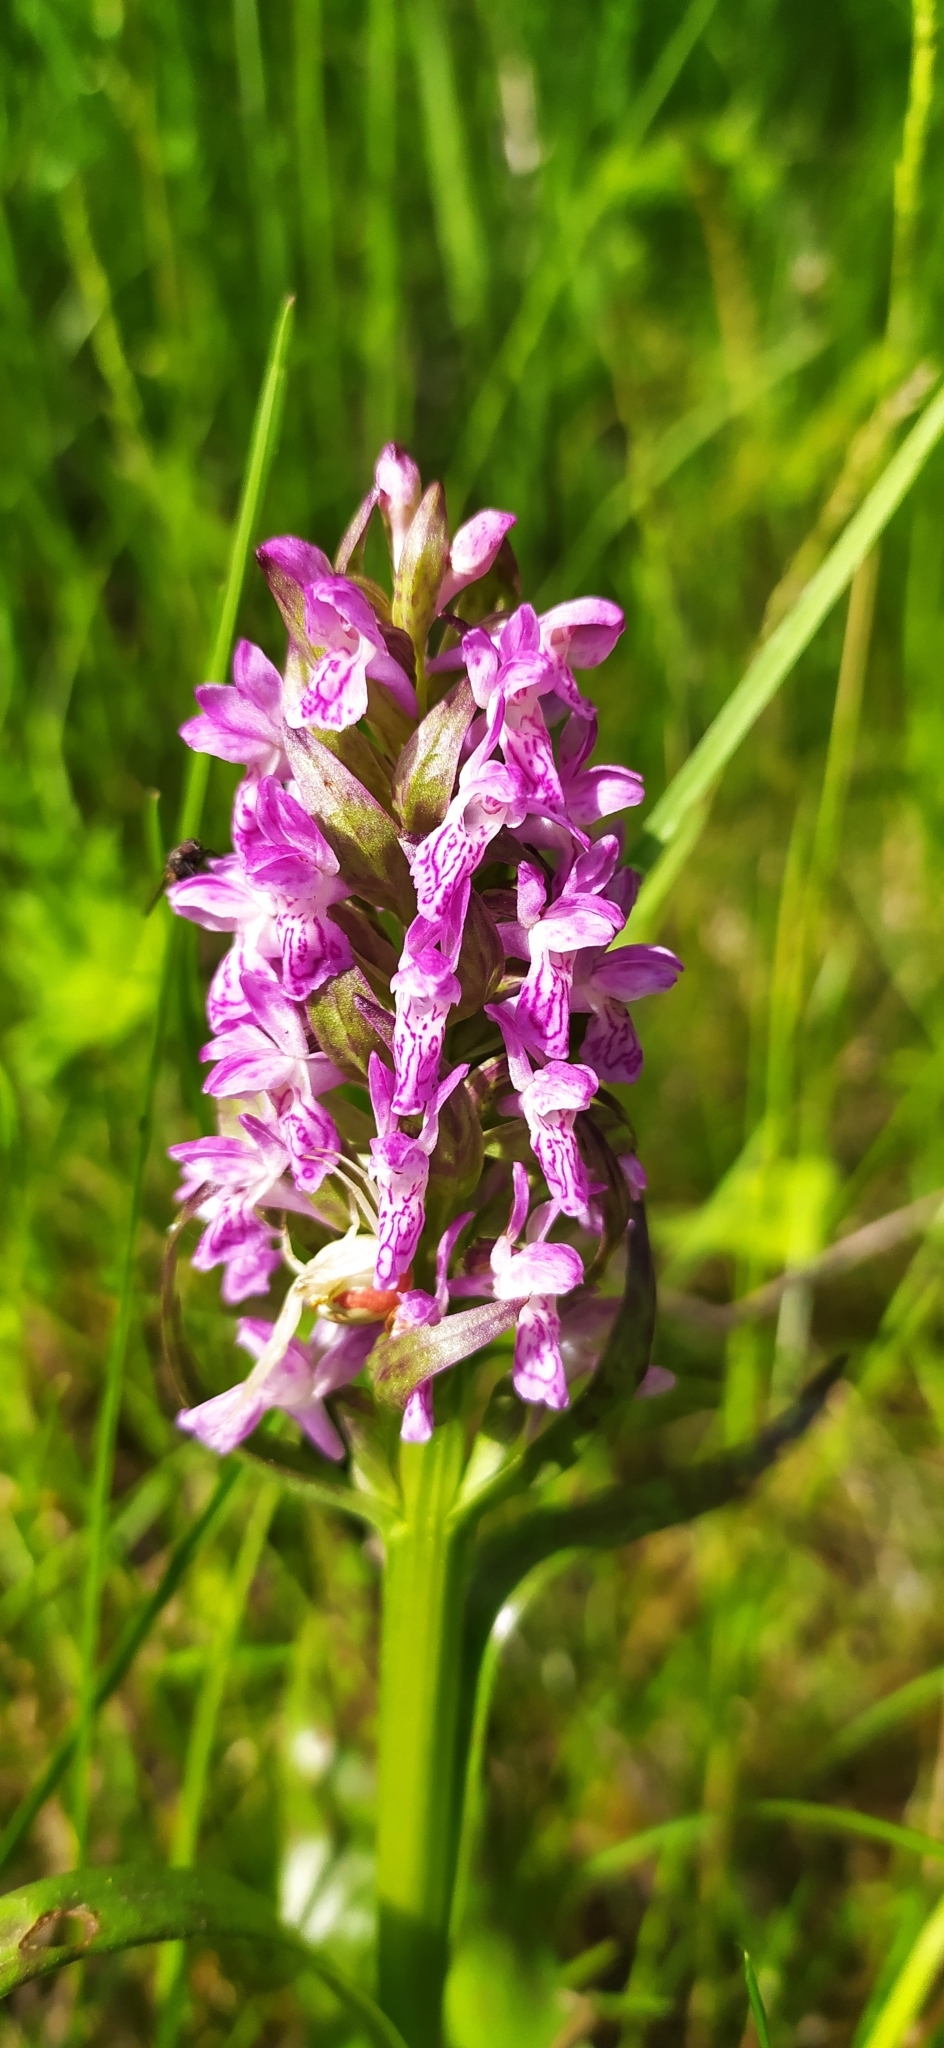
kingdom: Plantae
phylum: Tracheophyta
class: Liliopsida
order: Asparagales
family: Orchidaceae
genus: Dactylorhiza
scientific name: Dactylorhiza incarnata
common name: Early marsh-orchid
